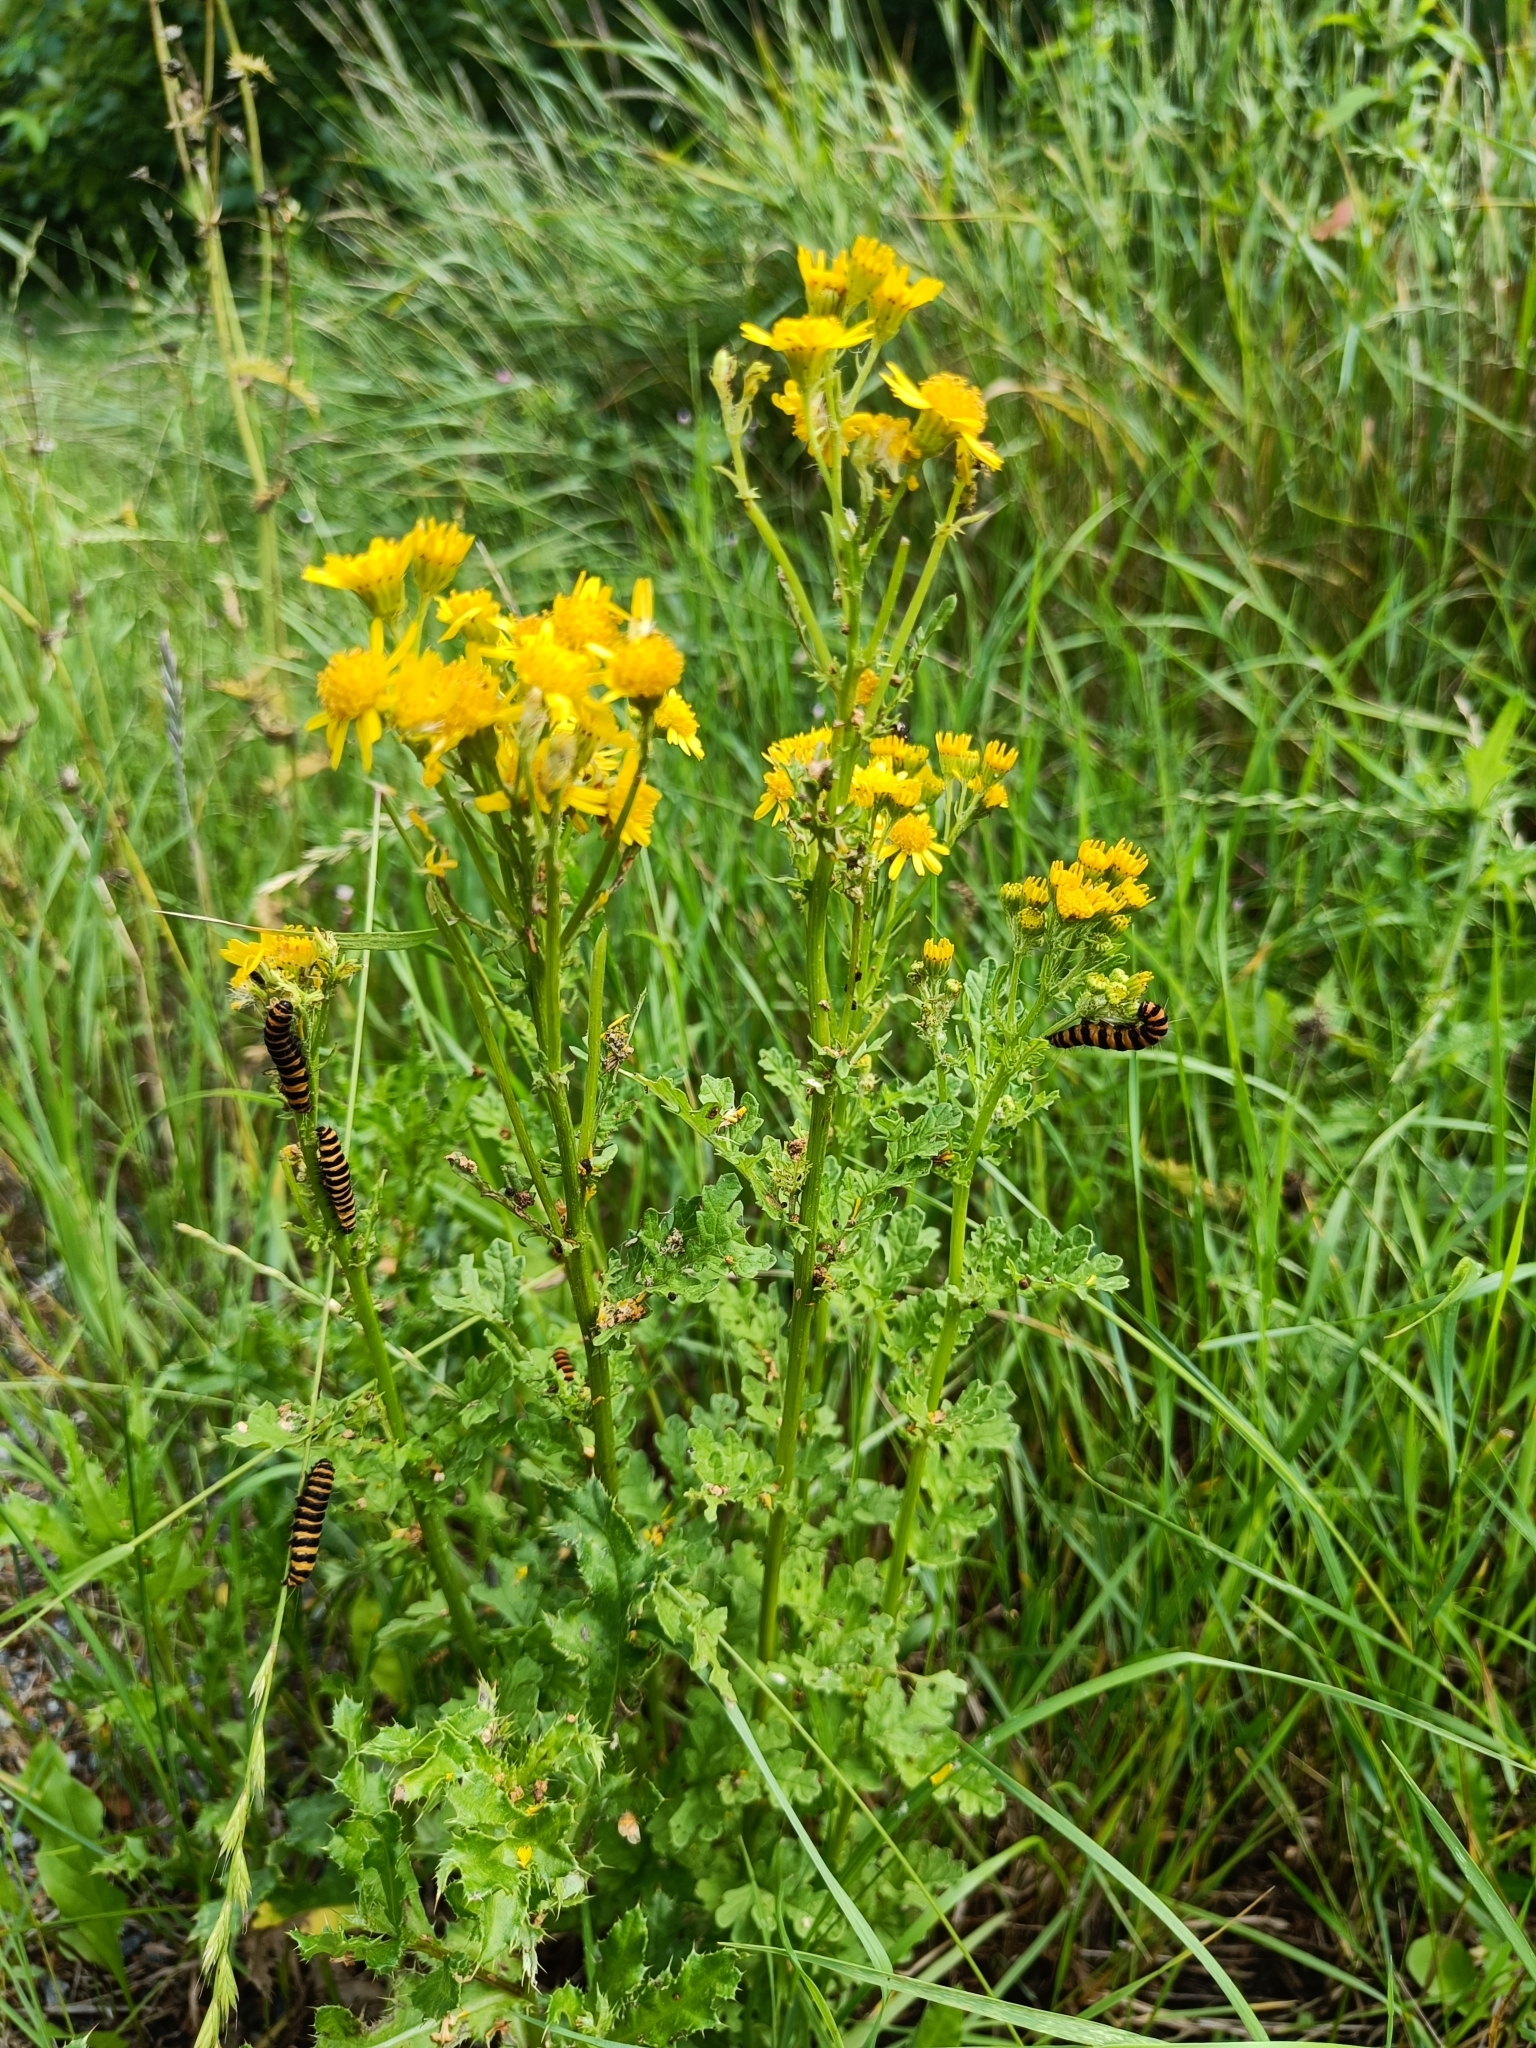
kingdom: Animalia
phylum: Arthropoda
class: Insecta
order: Lepidoptera
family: Erebidae
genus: Tyria
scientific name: Tyria jacobaeae
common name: Cinnabar
